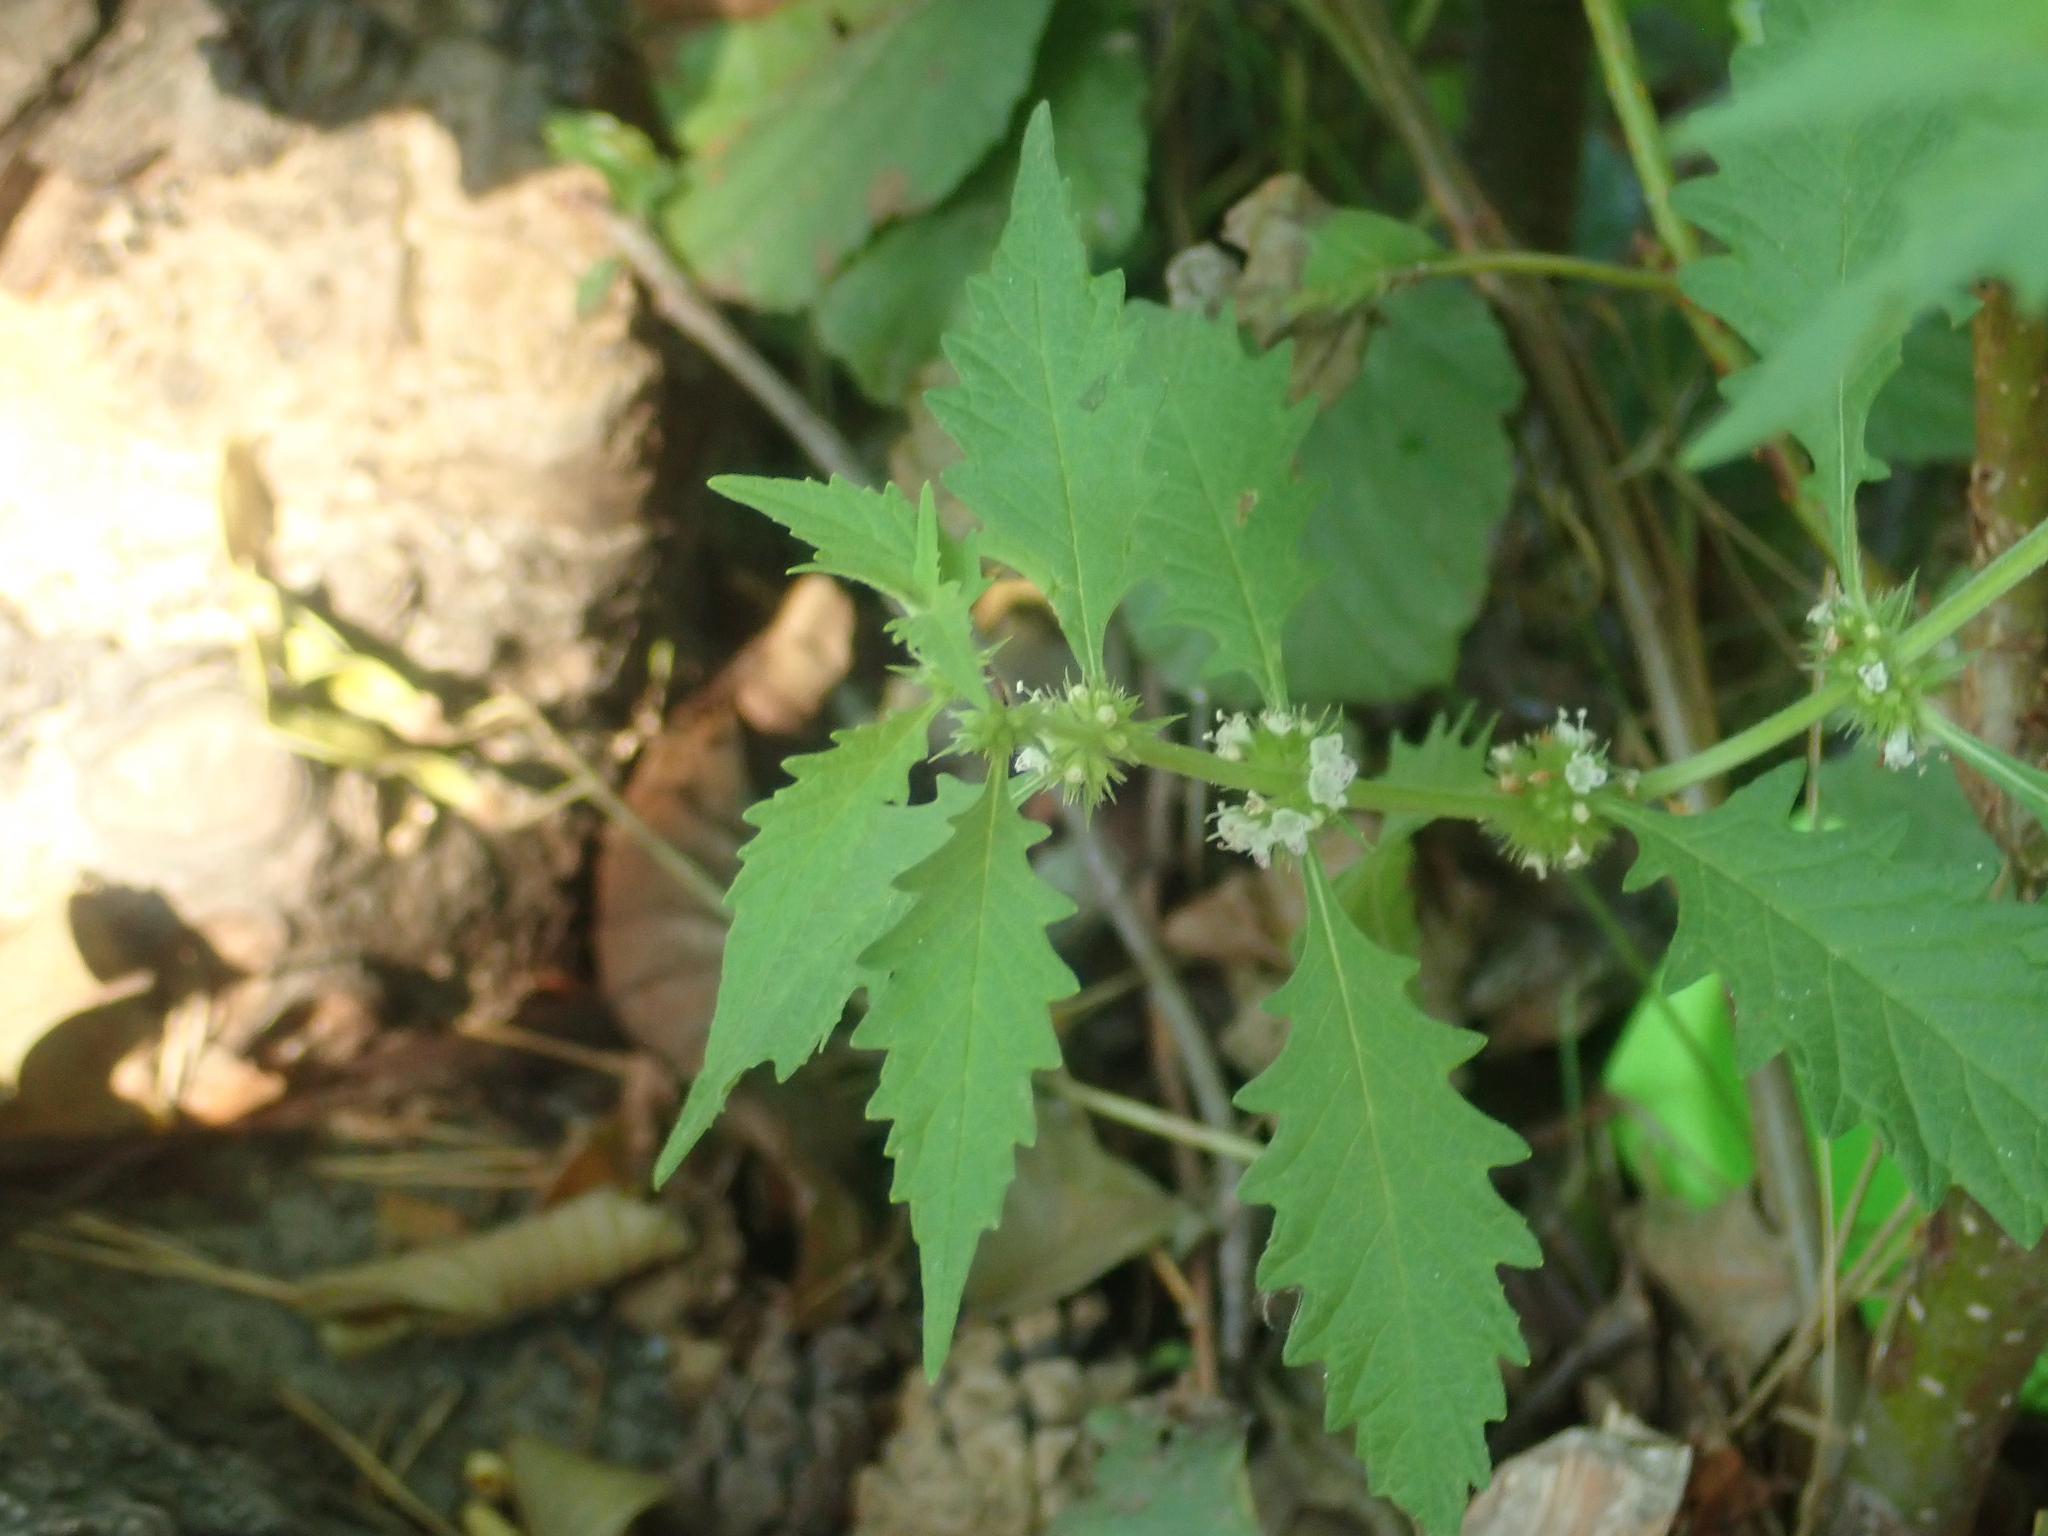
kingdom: Plantae
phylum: Tracheophyta
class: Magnoliopsida
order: Lamiales
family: Lamiaceae
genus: Lycopus
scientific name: Lycopus europaeus
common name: European bugleweed
